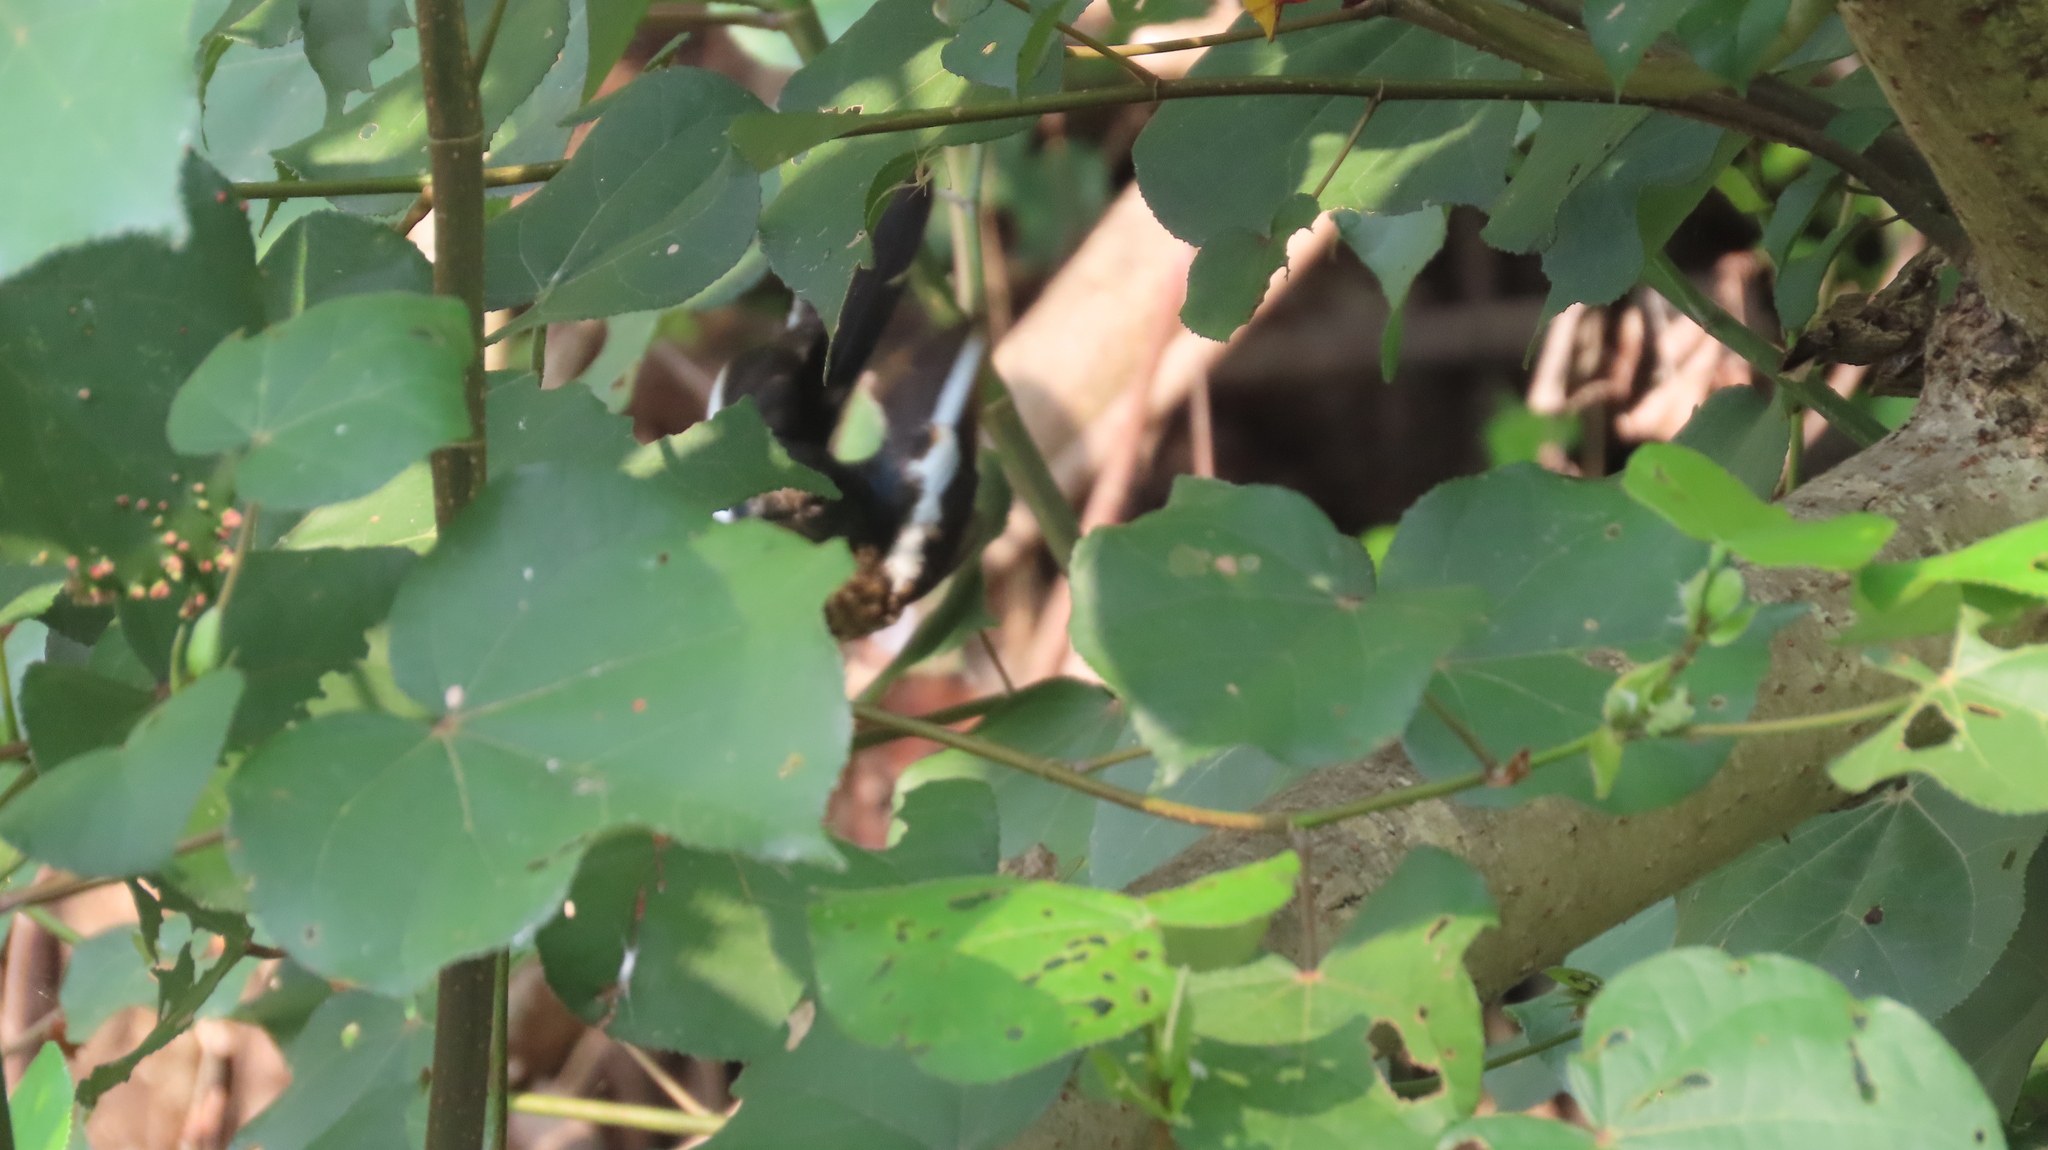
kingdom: Animalia
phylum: Chordata
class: Aves
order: Passeriformes
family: Muscicapidae
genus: Copsychus
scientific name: Copsychus saularis
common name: Oriental magpie-robin
